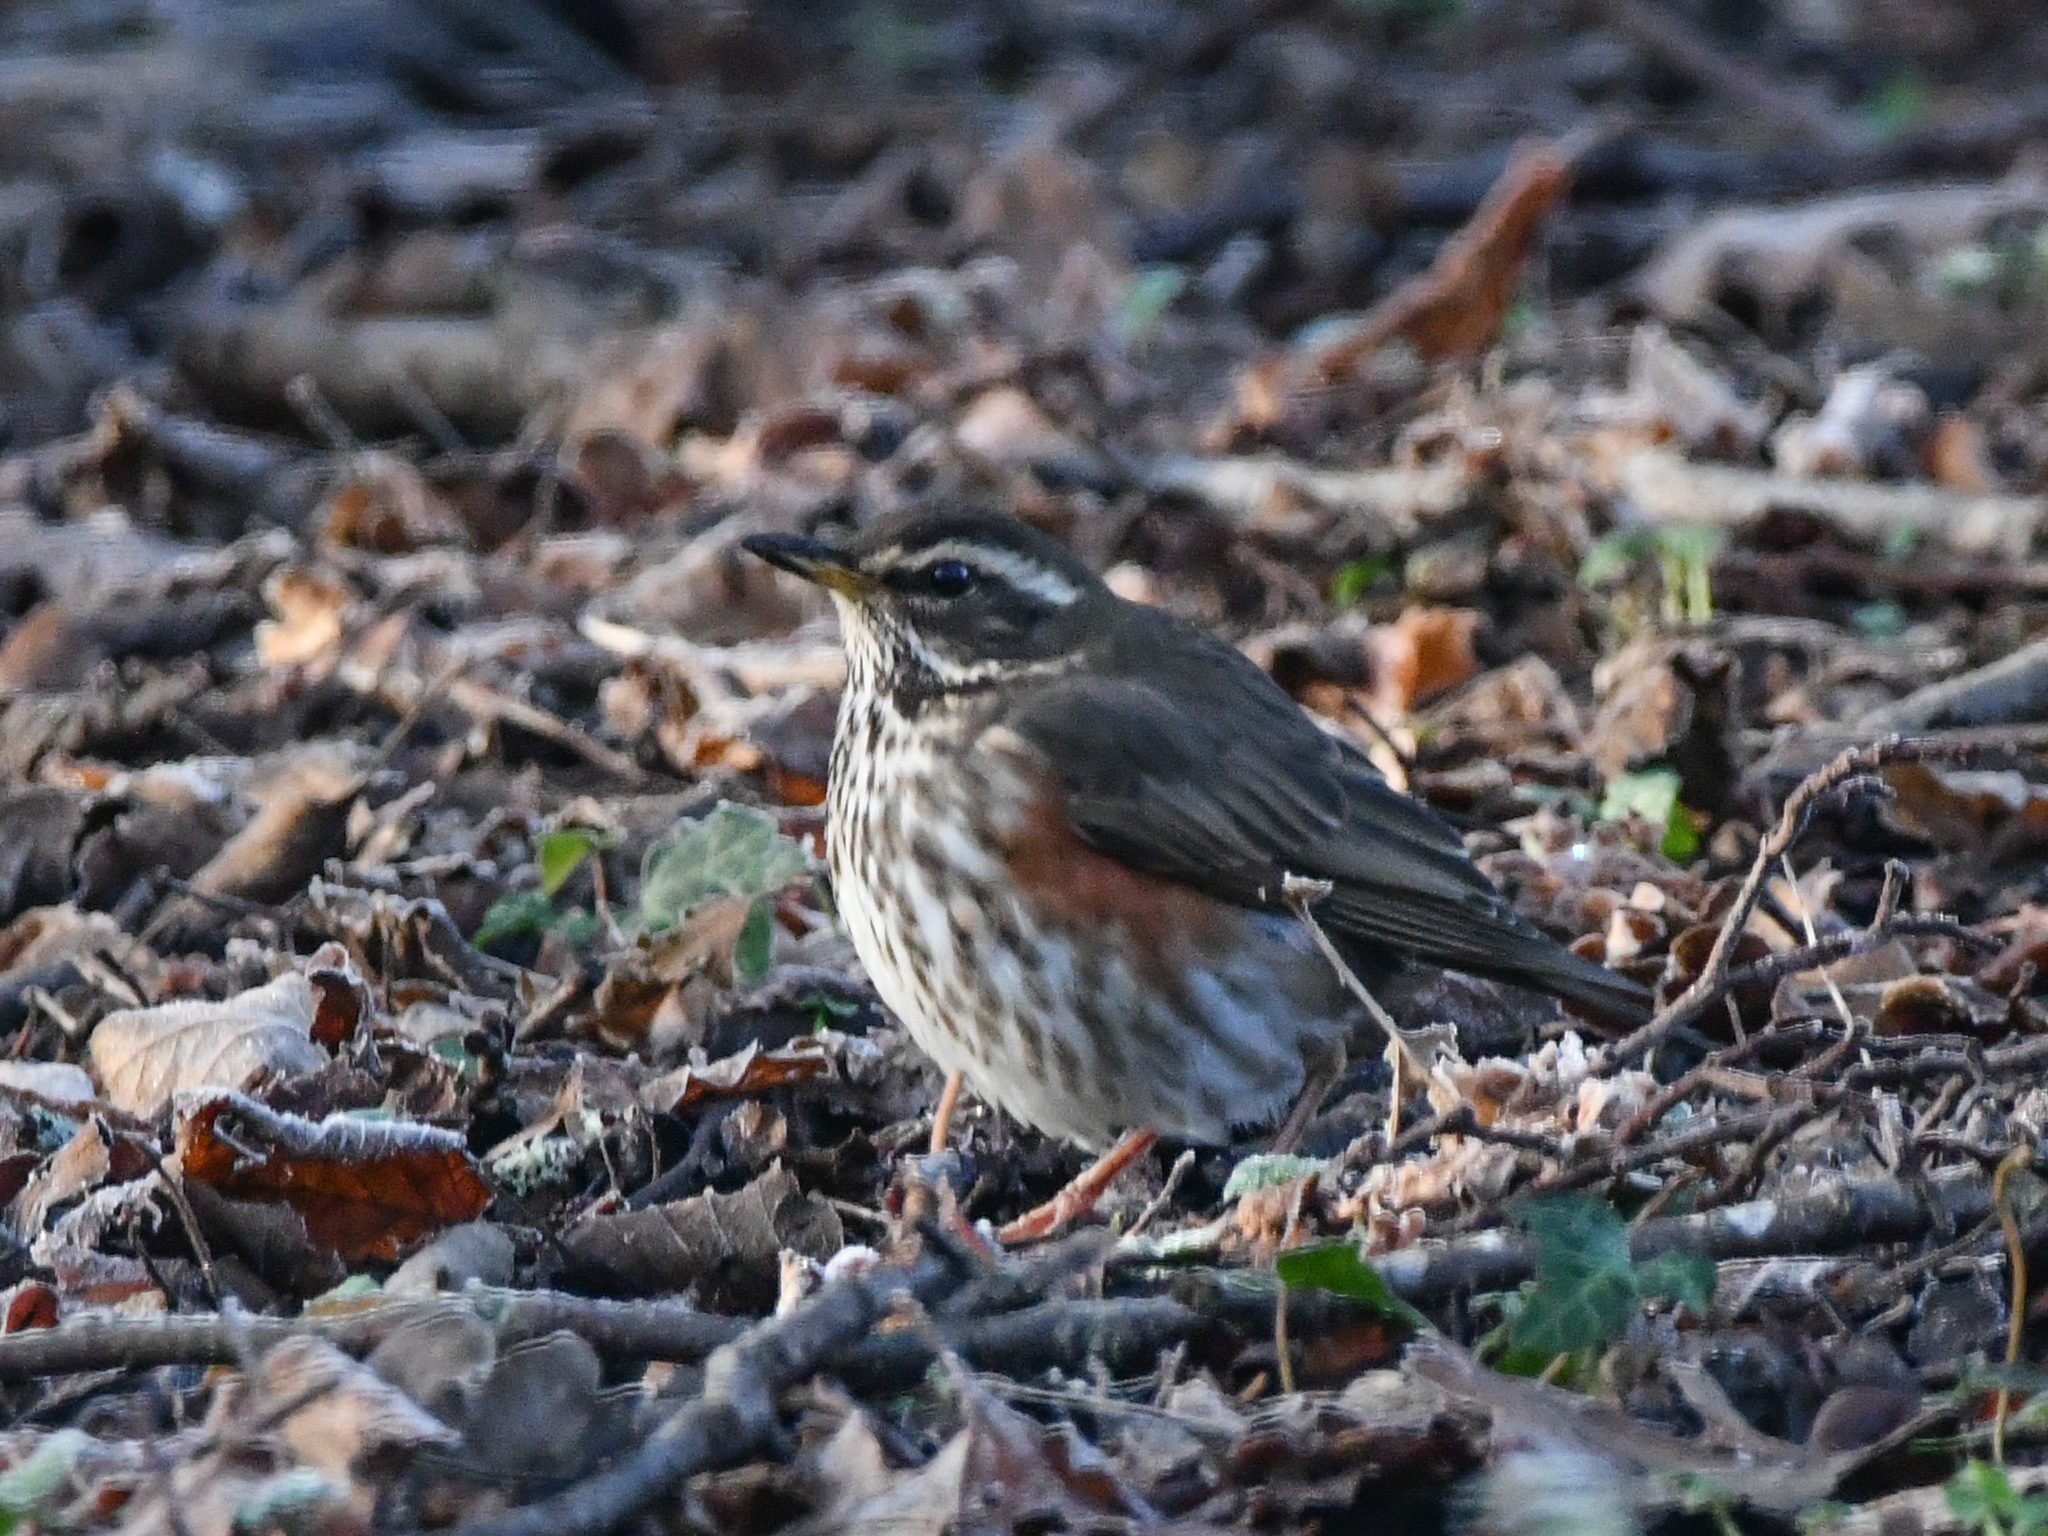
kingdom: Animalia
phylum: Chordata
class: Aves
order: Passeriformes
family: Turdidae
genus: Turdus
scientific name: Turdus iliacus
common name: Redwing
